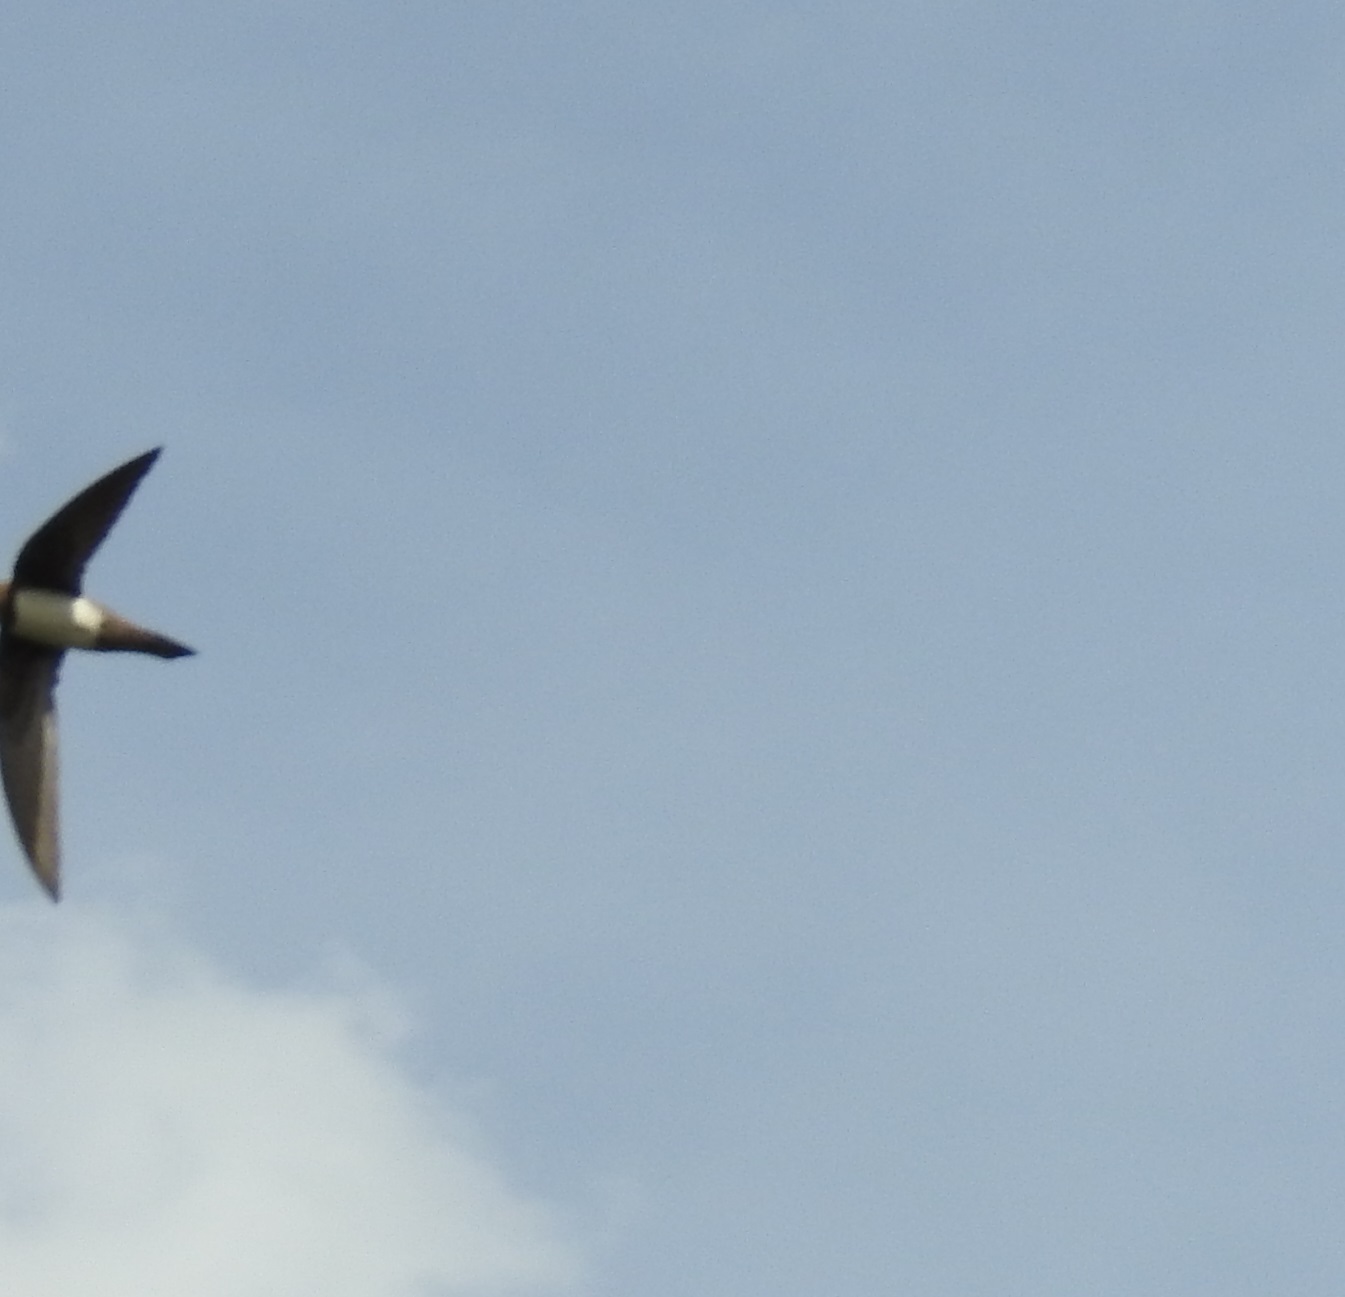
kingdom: Animalia
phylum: Chordata
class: Aves
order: Apodiformes
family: Apodidae
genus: Tachymarptis
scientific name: Tachymarptis melba
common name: Alpine swift
